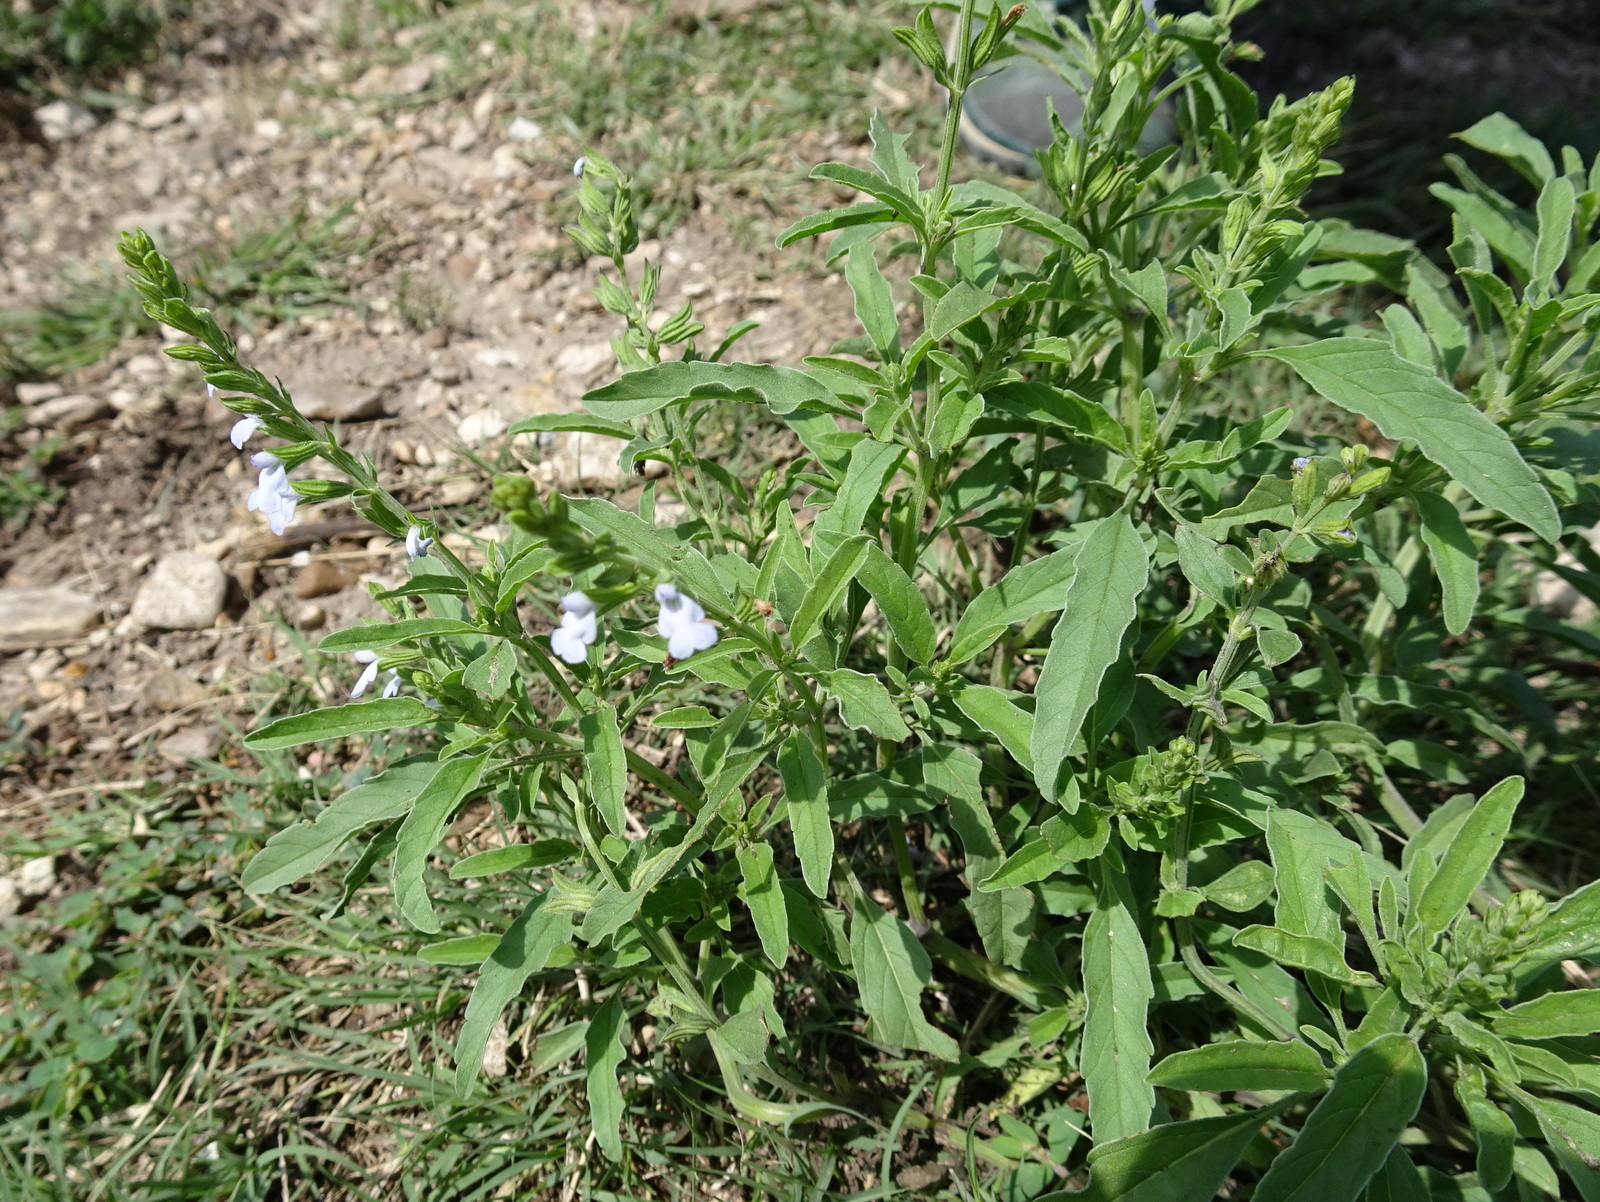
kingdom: Plantae
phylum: Tracheophyta
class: Magnoliopsida
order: Lamiales
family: Lamiaceae
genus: Salvia
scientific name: Salvia reflexa
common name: Mintweed
